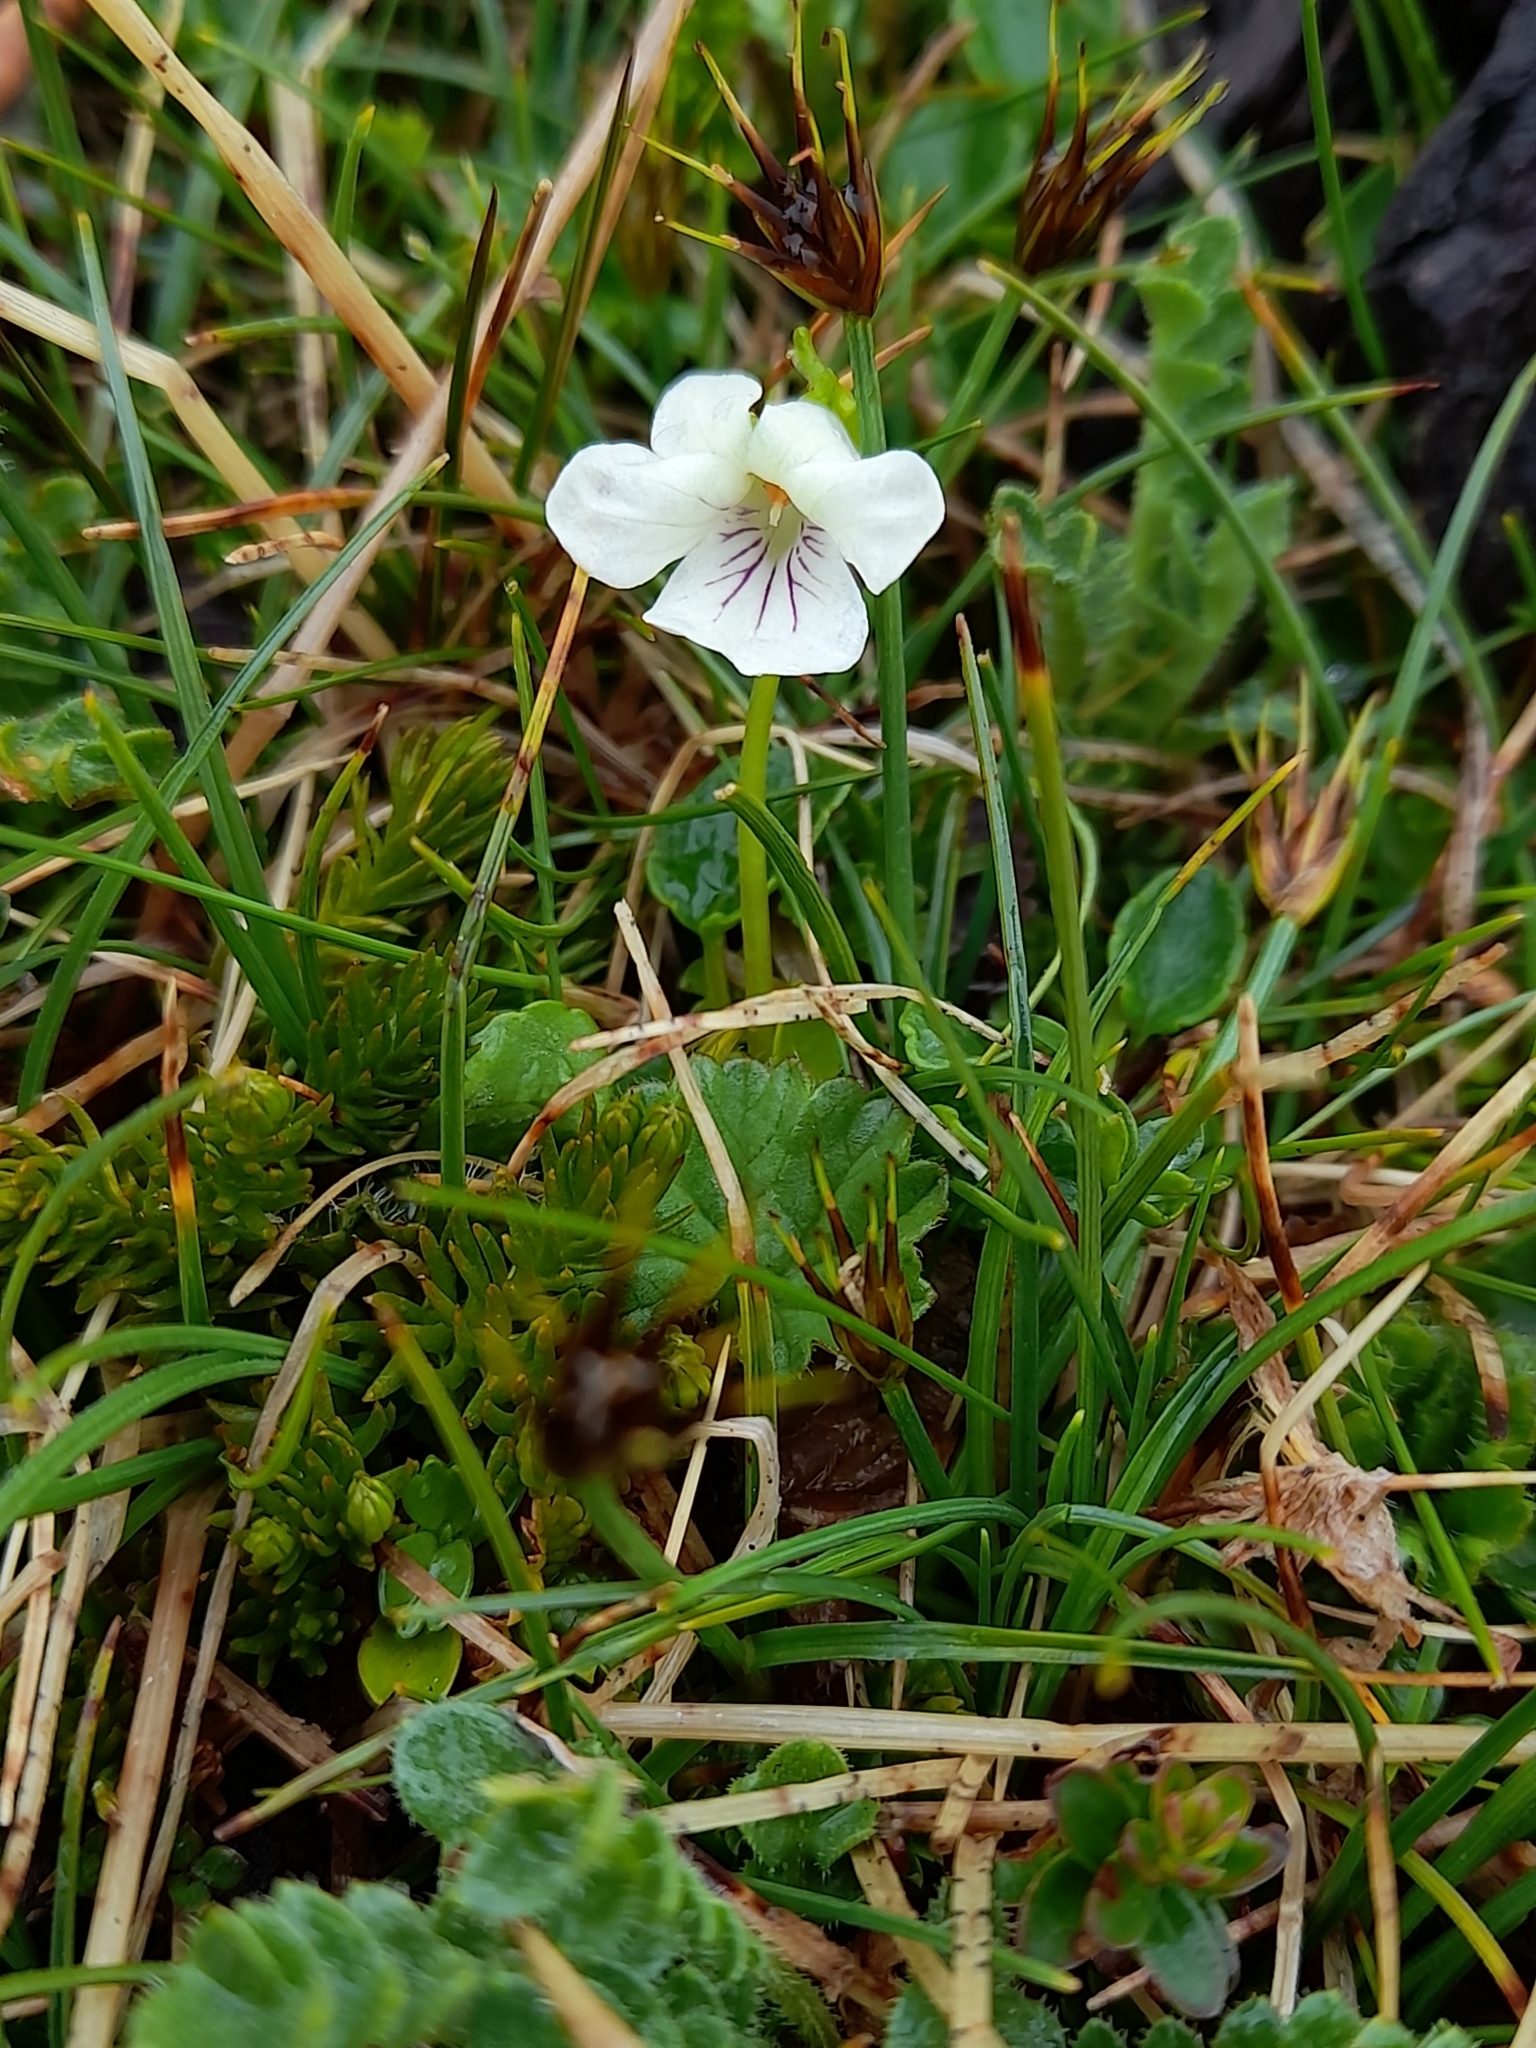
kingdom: Plantae
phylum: Tracheophyta
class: Magnoliopsida
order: Malpighiales
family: Violaceae
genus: Viola
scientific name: Viola commersonii
